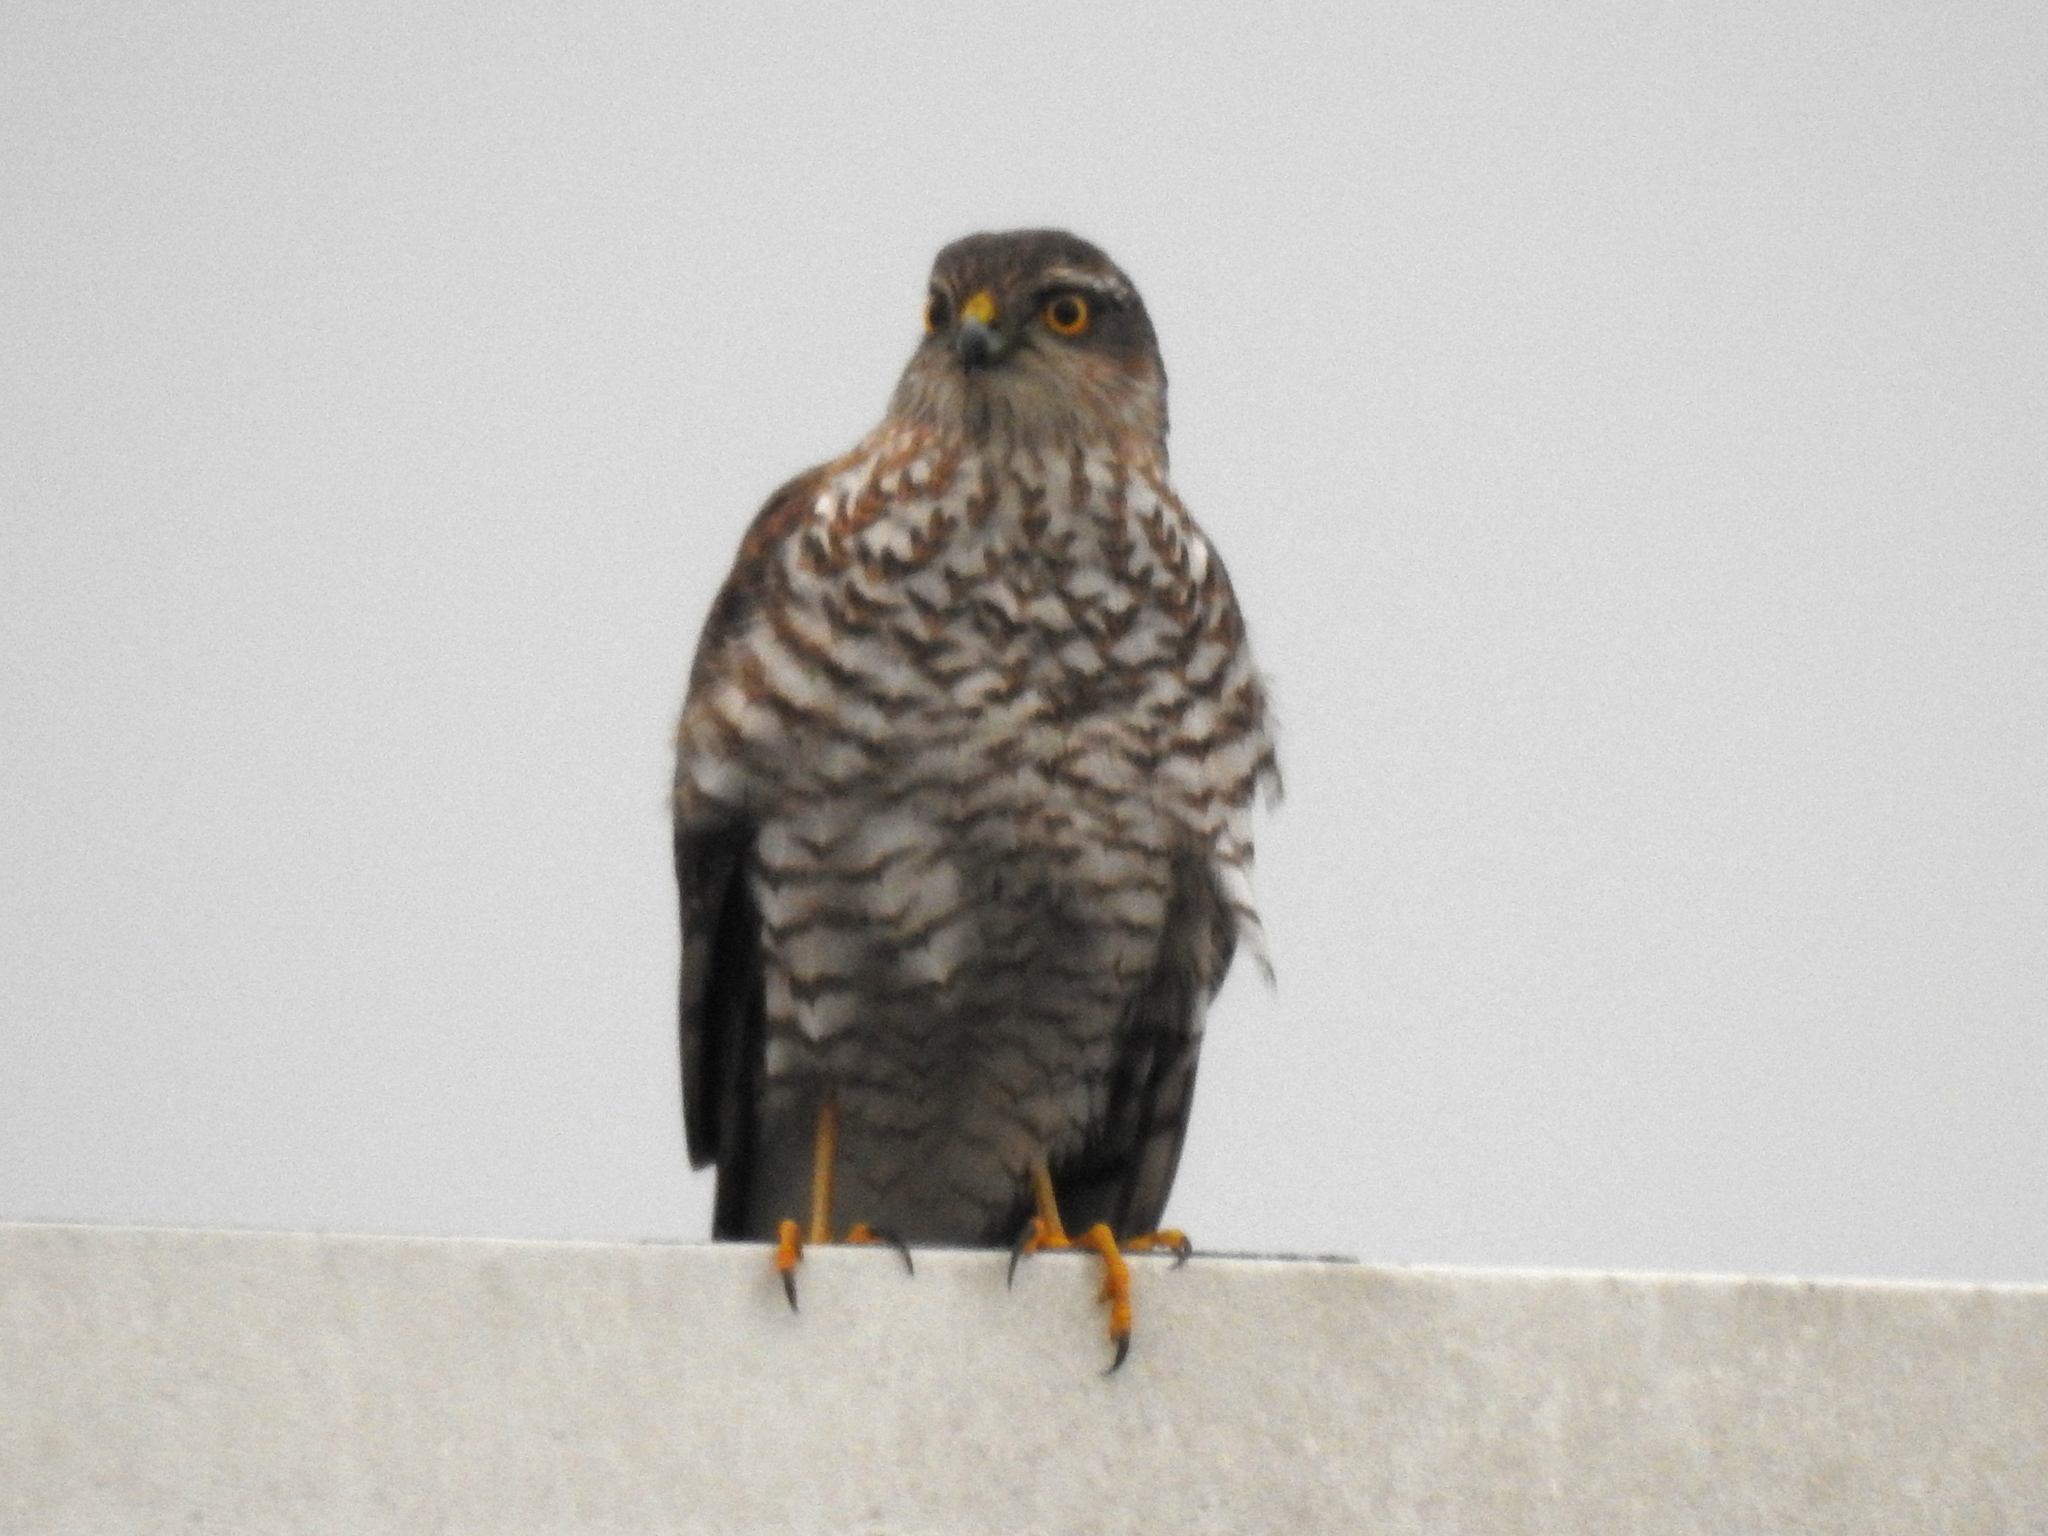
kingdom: Animalia
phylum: Chordata
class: Aves
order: Accipitriformes
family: Accipitridae
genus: Accipiter
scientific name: Accipiter nisus
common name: Eurasian sparrowhawk
